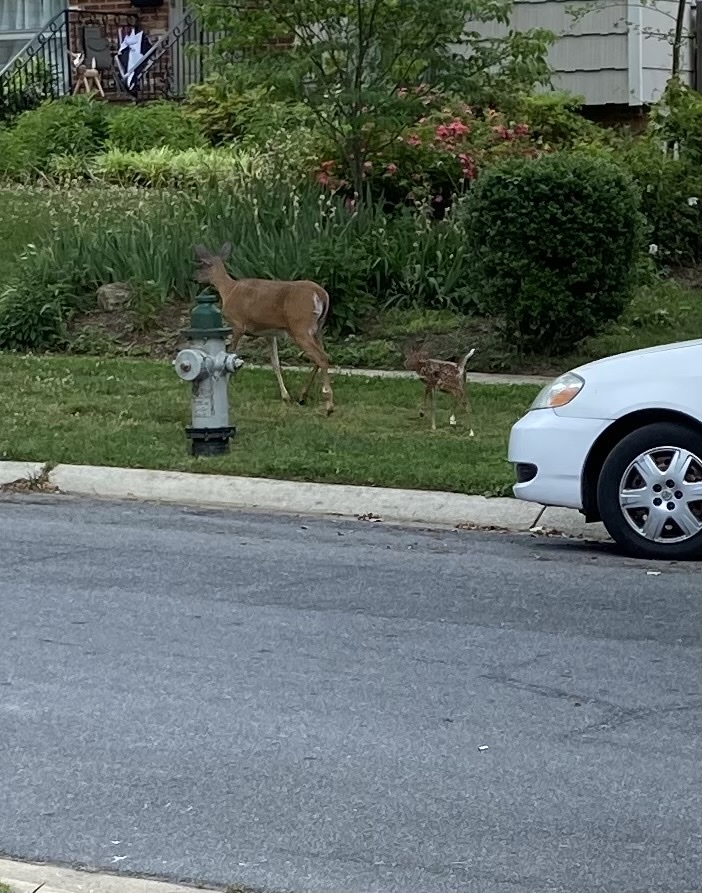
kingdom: Animalia
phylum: Chordata
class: Mammalia
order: Artiodactyla
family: Cervidae
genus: Odocoileus
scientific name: Odocoileus virginianus
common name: White-tailed deer
